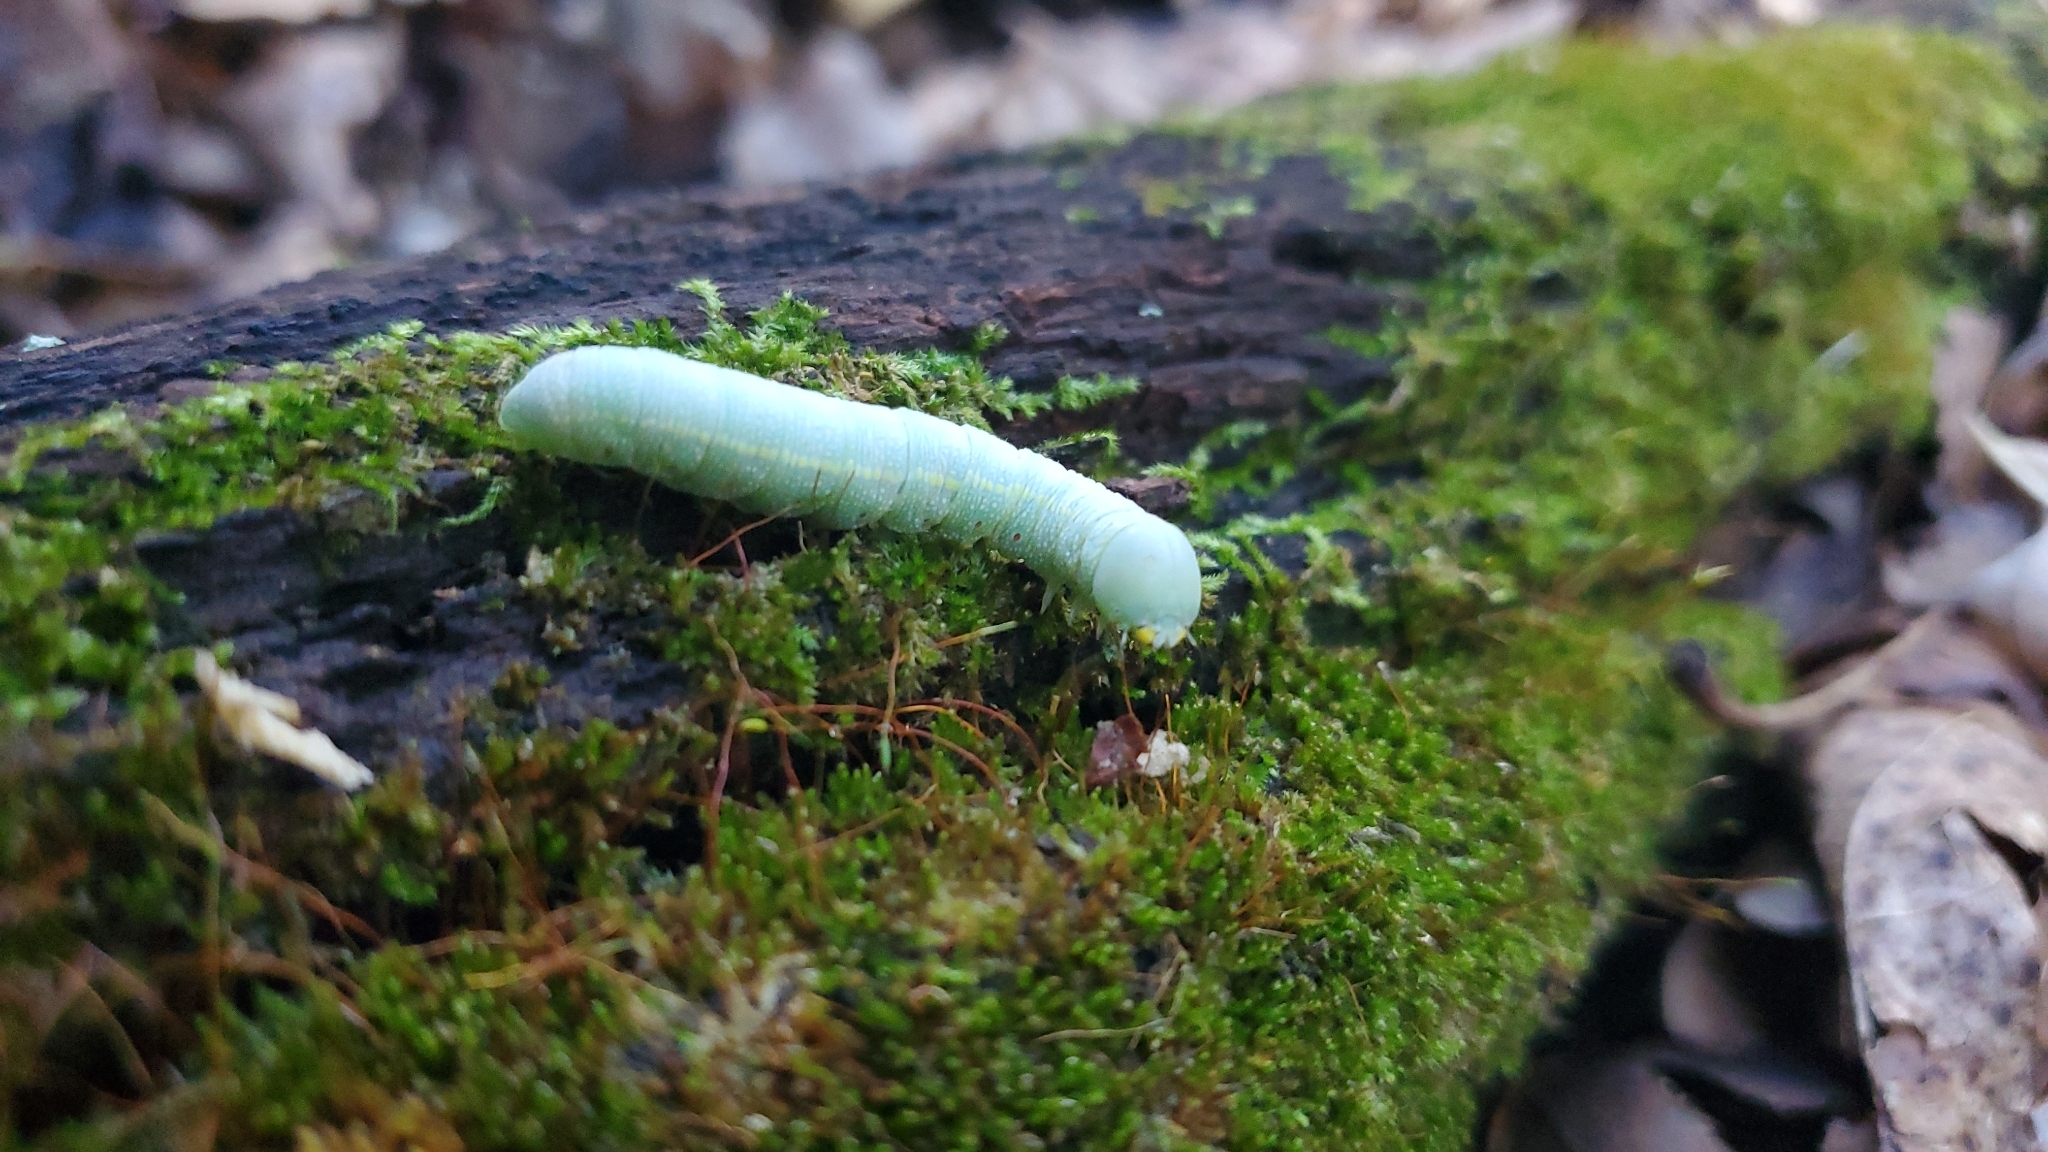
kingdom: Animalia
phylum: Arthropoda
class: Insecta
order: Lepidoptera
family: Notodontidae
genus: Nadata
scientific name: Nadata gibbosa
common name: White-dotted prominent
